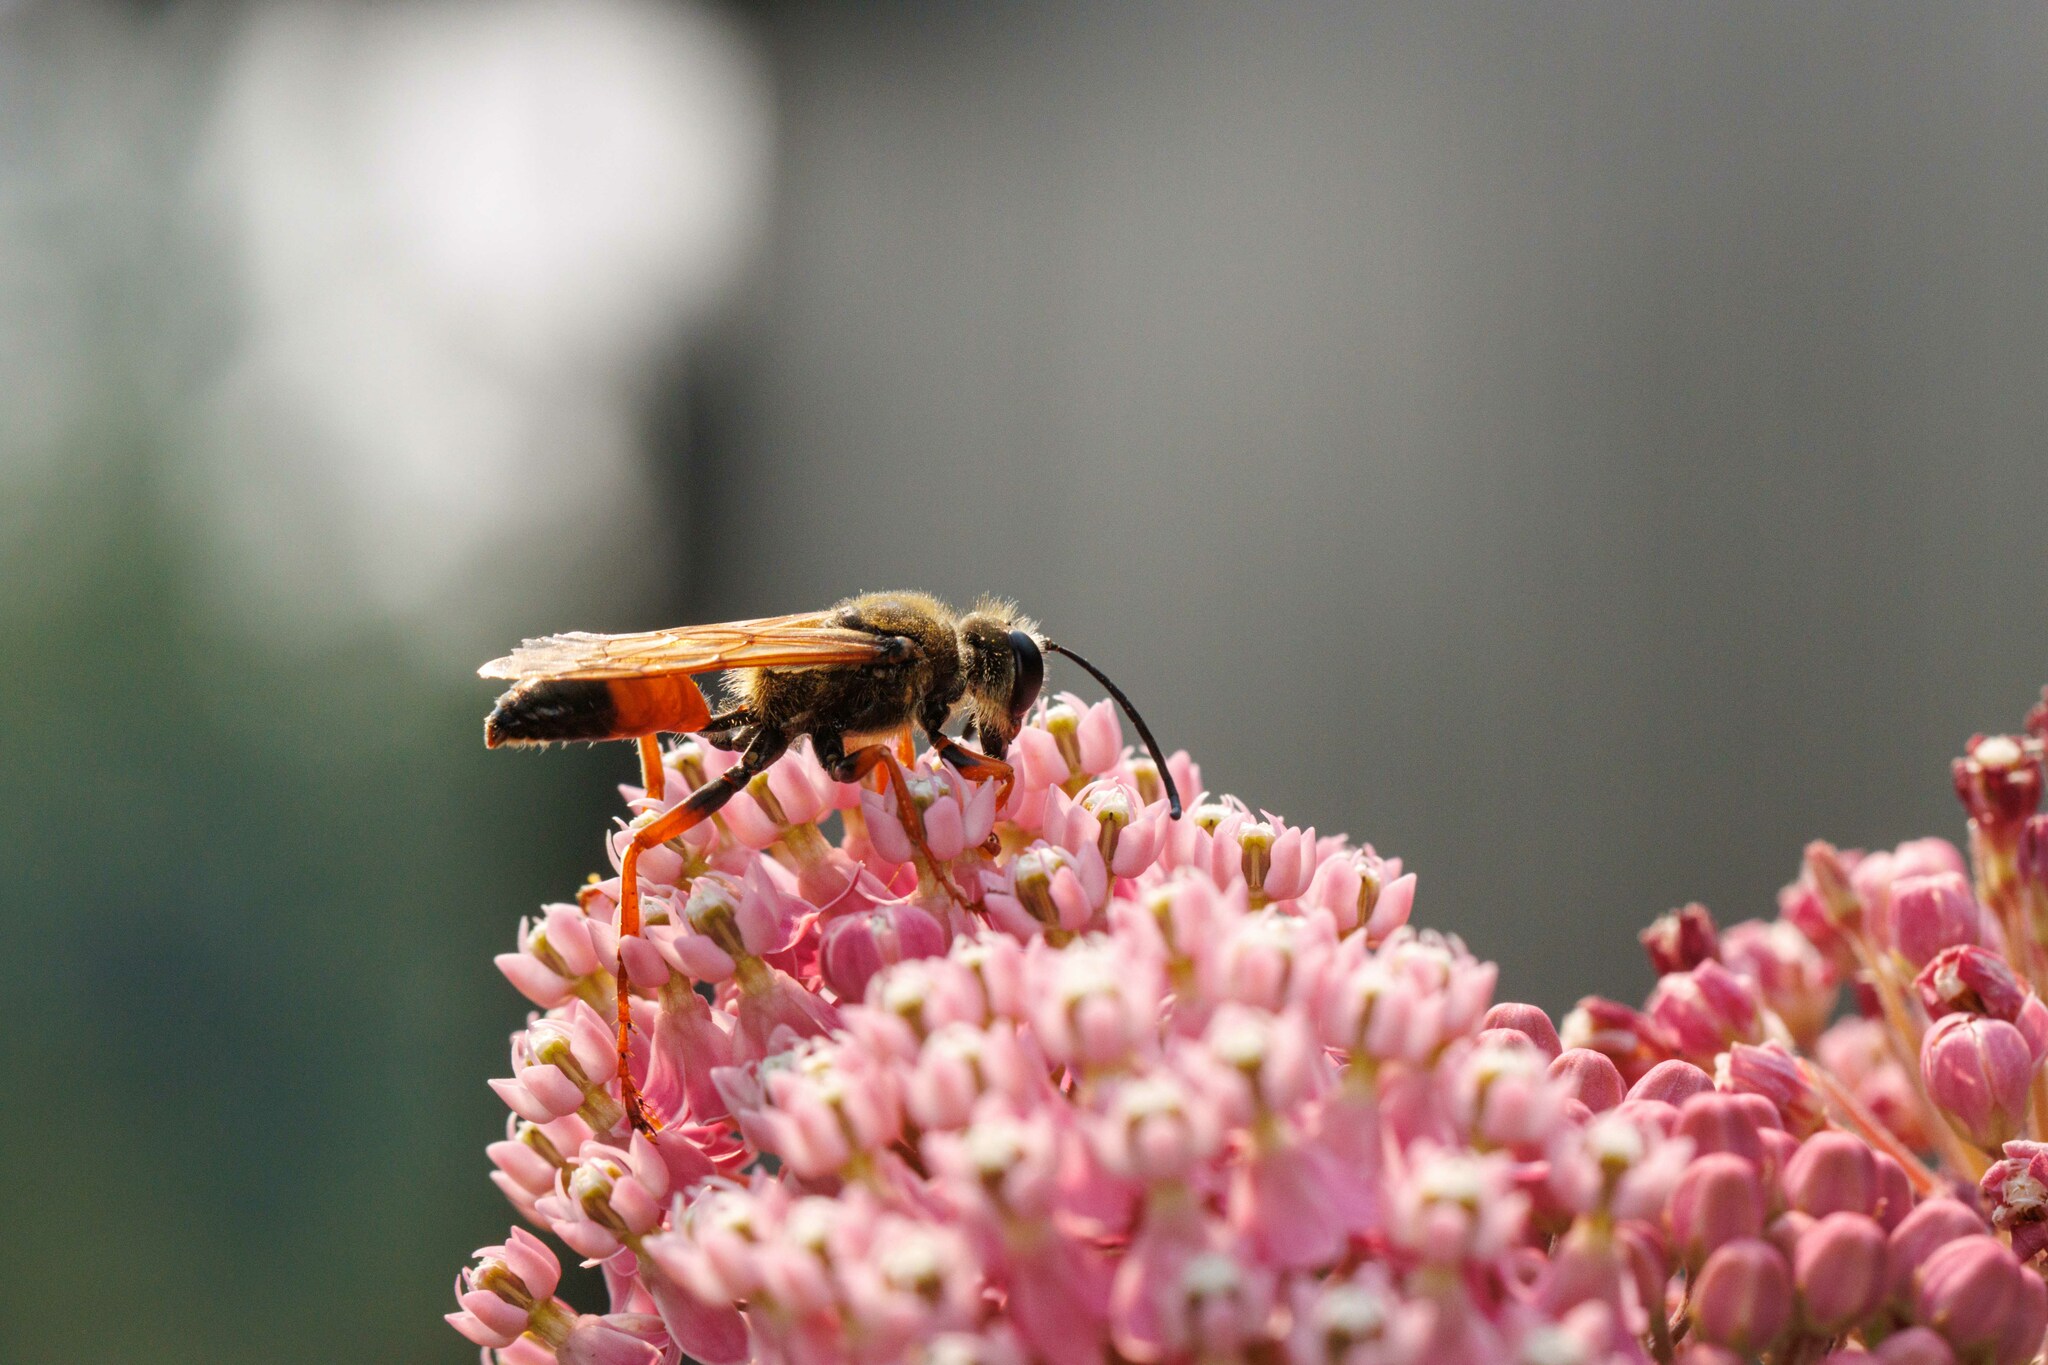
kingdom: Animalia
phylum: Arthropoda
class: Insecta
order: Hymenoptera
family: Sphecidae
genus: Sphex
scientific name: Sphex ichneumoneus
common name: Great golden digger wasp
